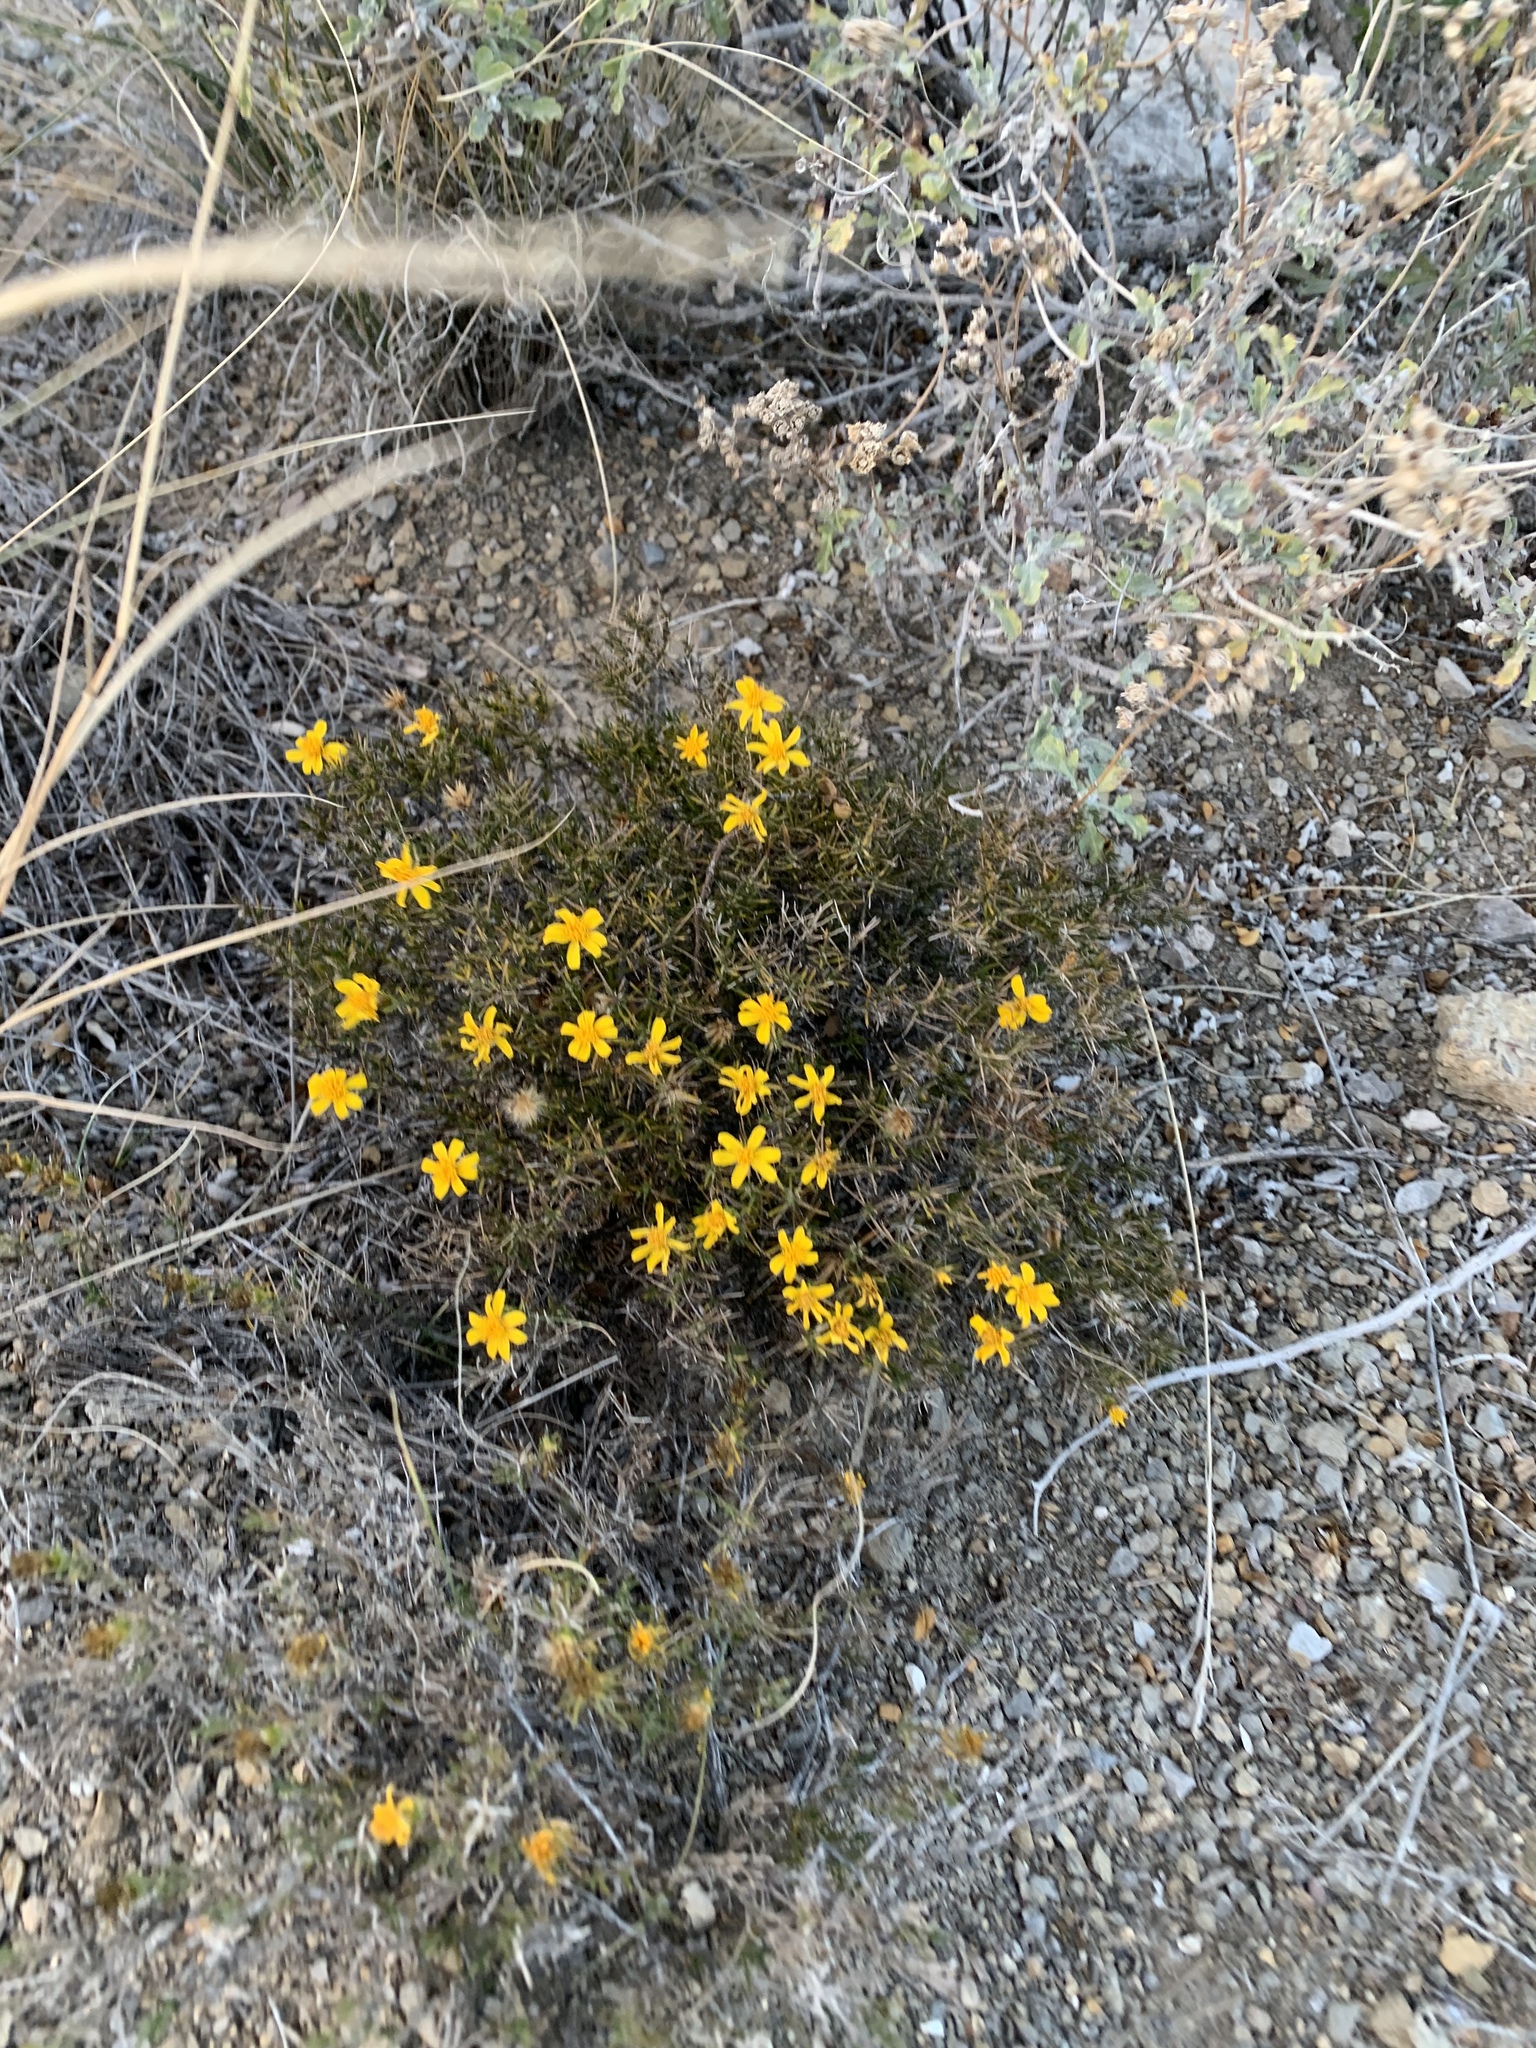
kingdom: Plantae
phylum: Tracheophyta
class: Magnoliopsida
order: Asterales
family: Asteraceae
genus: Thymophylla
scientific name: Thymophylla acerosa
